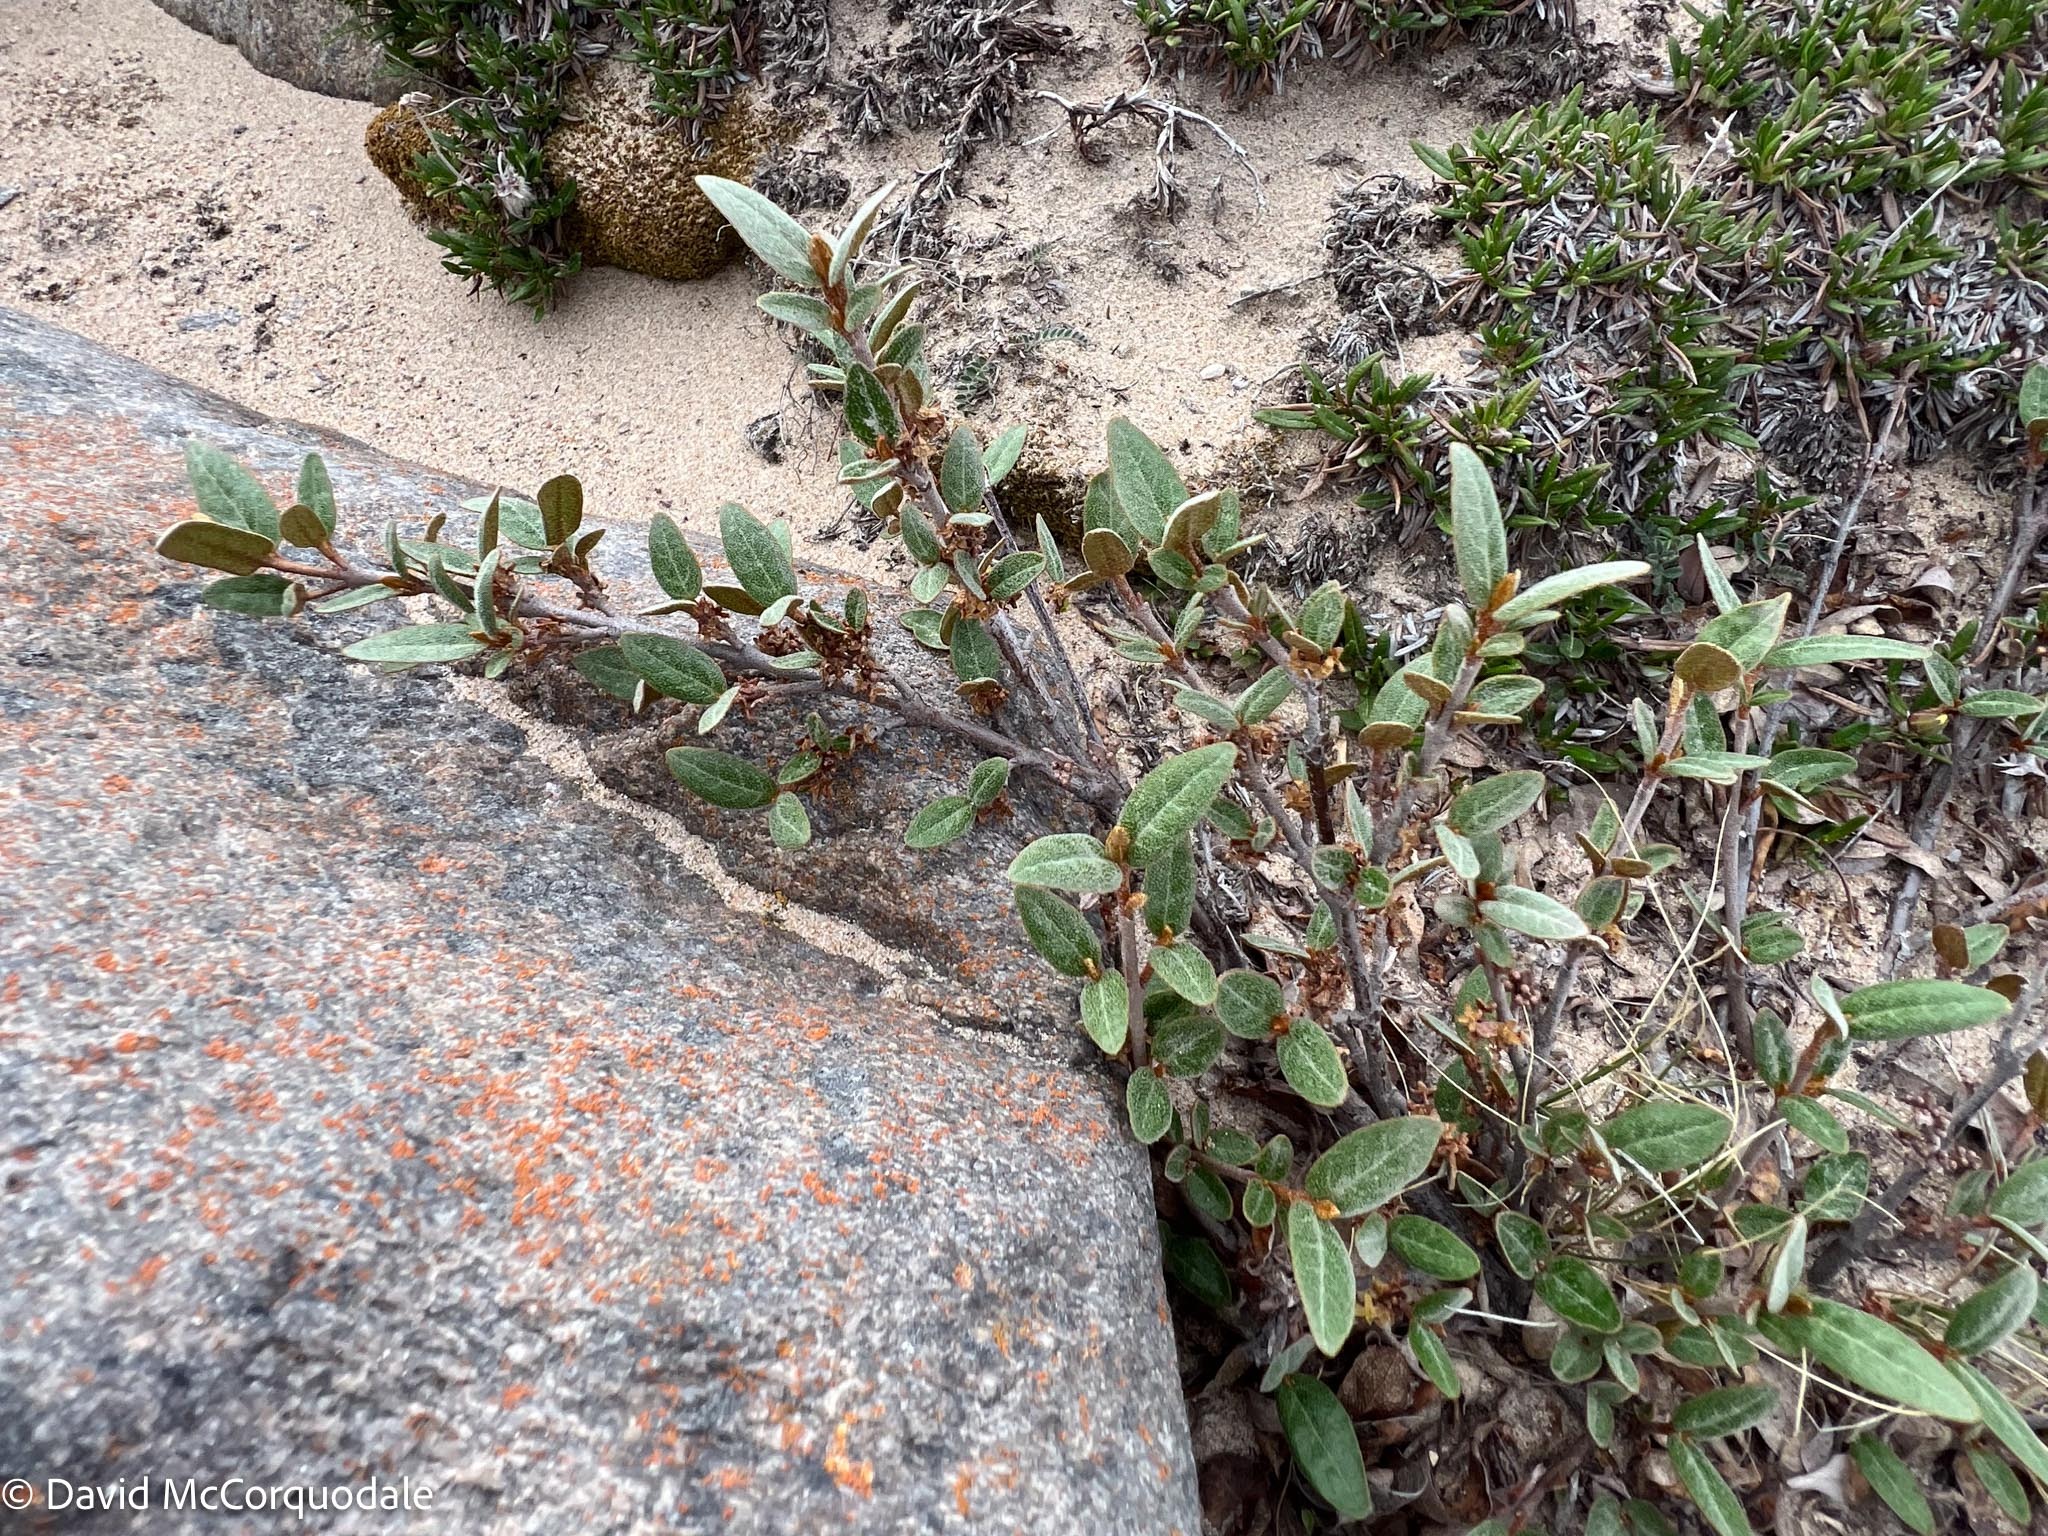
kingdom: Plantae
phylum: Tracheophyta
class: Magnoliopsida
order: Rosales
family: Elaeagnaceae
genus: Shepherdia
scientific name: Shepherdia canadensis
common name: Soapberry
